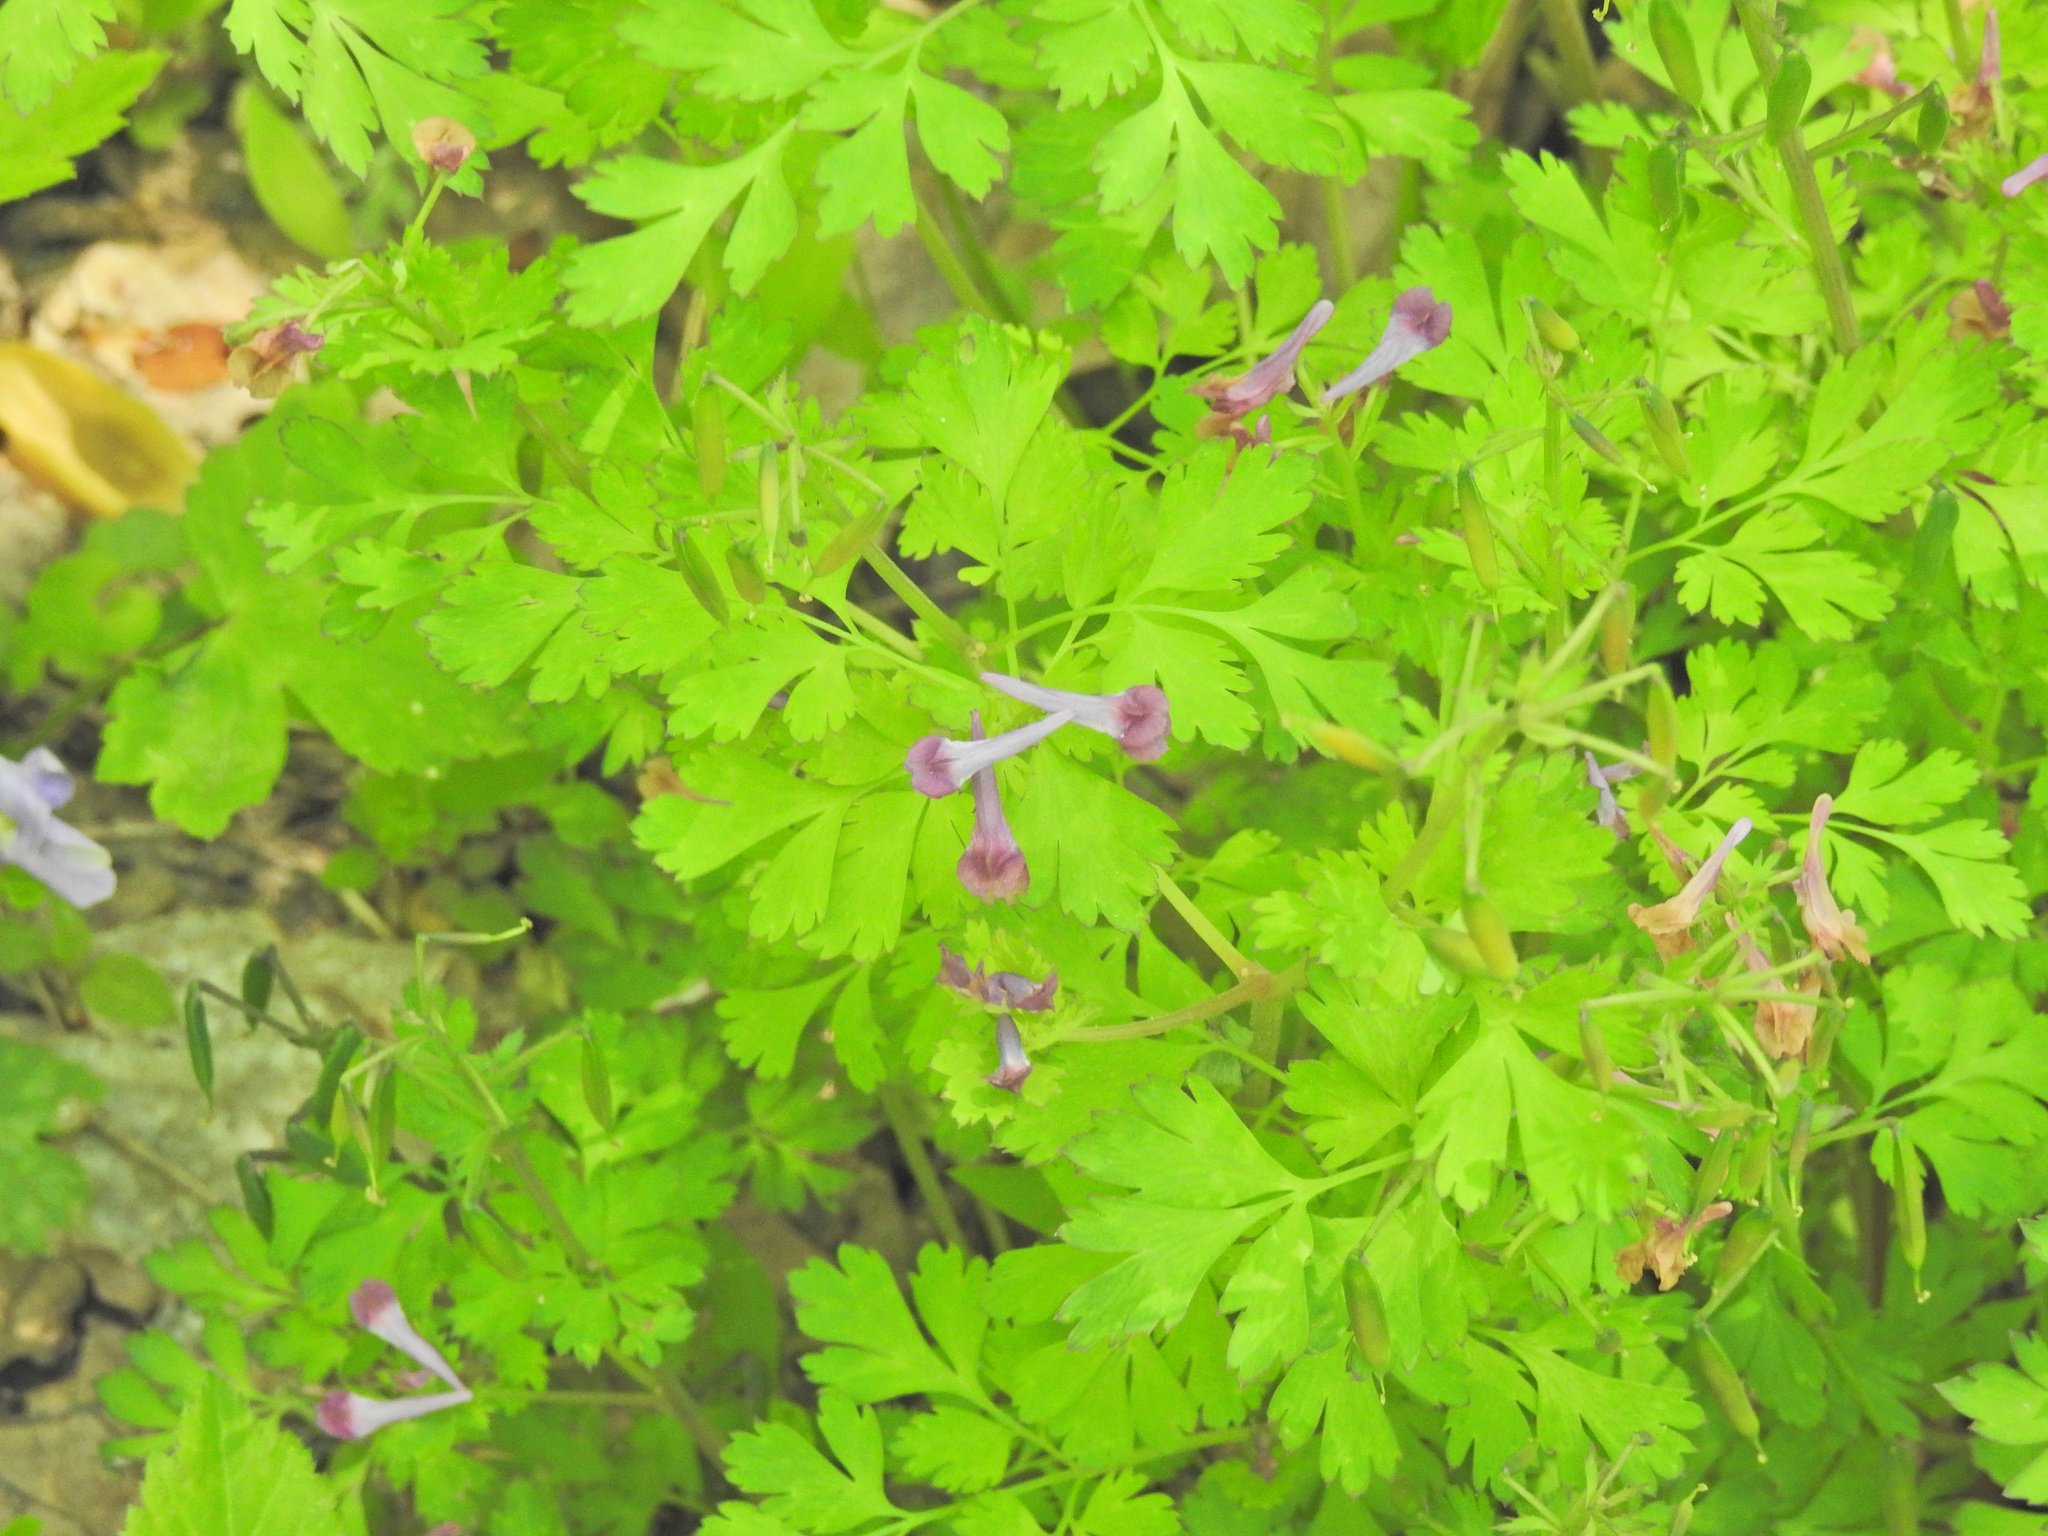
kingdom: Plantae
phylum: Tracheophyta
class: Magnoliopsida
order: Ranunculales
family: Papaveraceae
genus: Corydalis
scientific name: Corydalis incisa
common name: Incised fumewort
